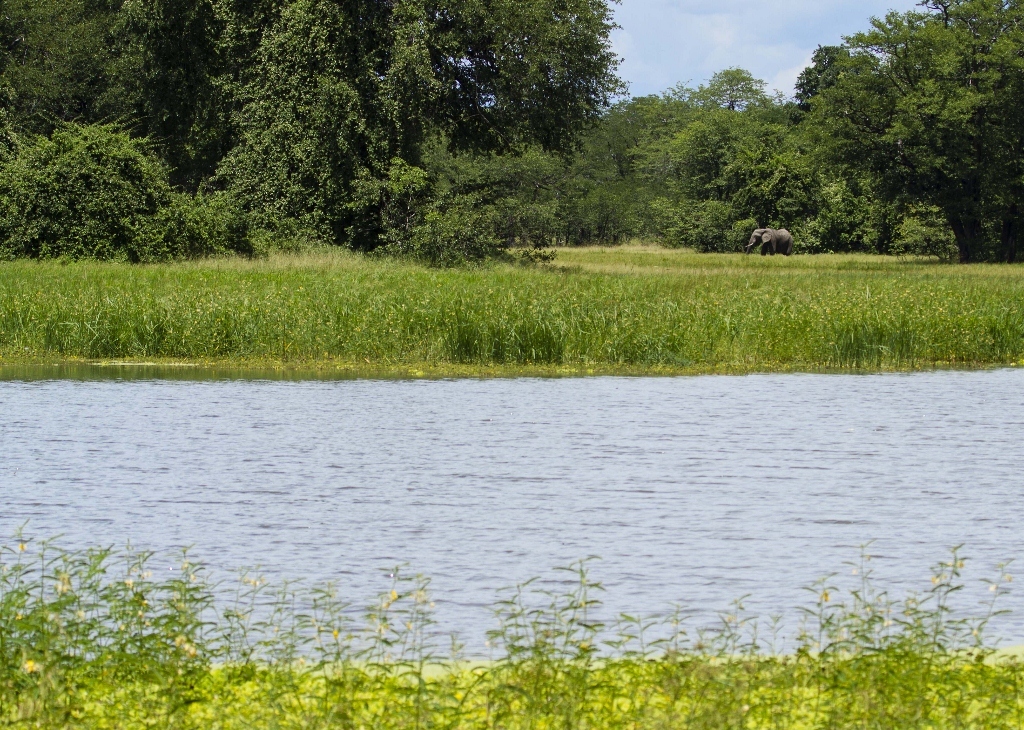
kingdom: Animalia
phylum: Chordata
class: Mammalia
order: Proboscidea
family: Elephantidae
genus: Loxodonta
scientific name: Loxodonta africana
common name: African elephant
